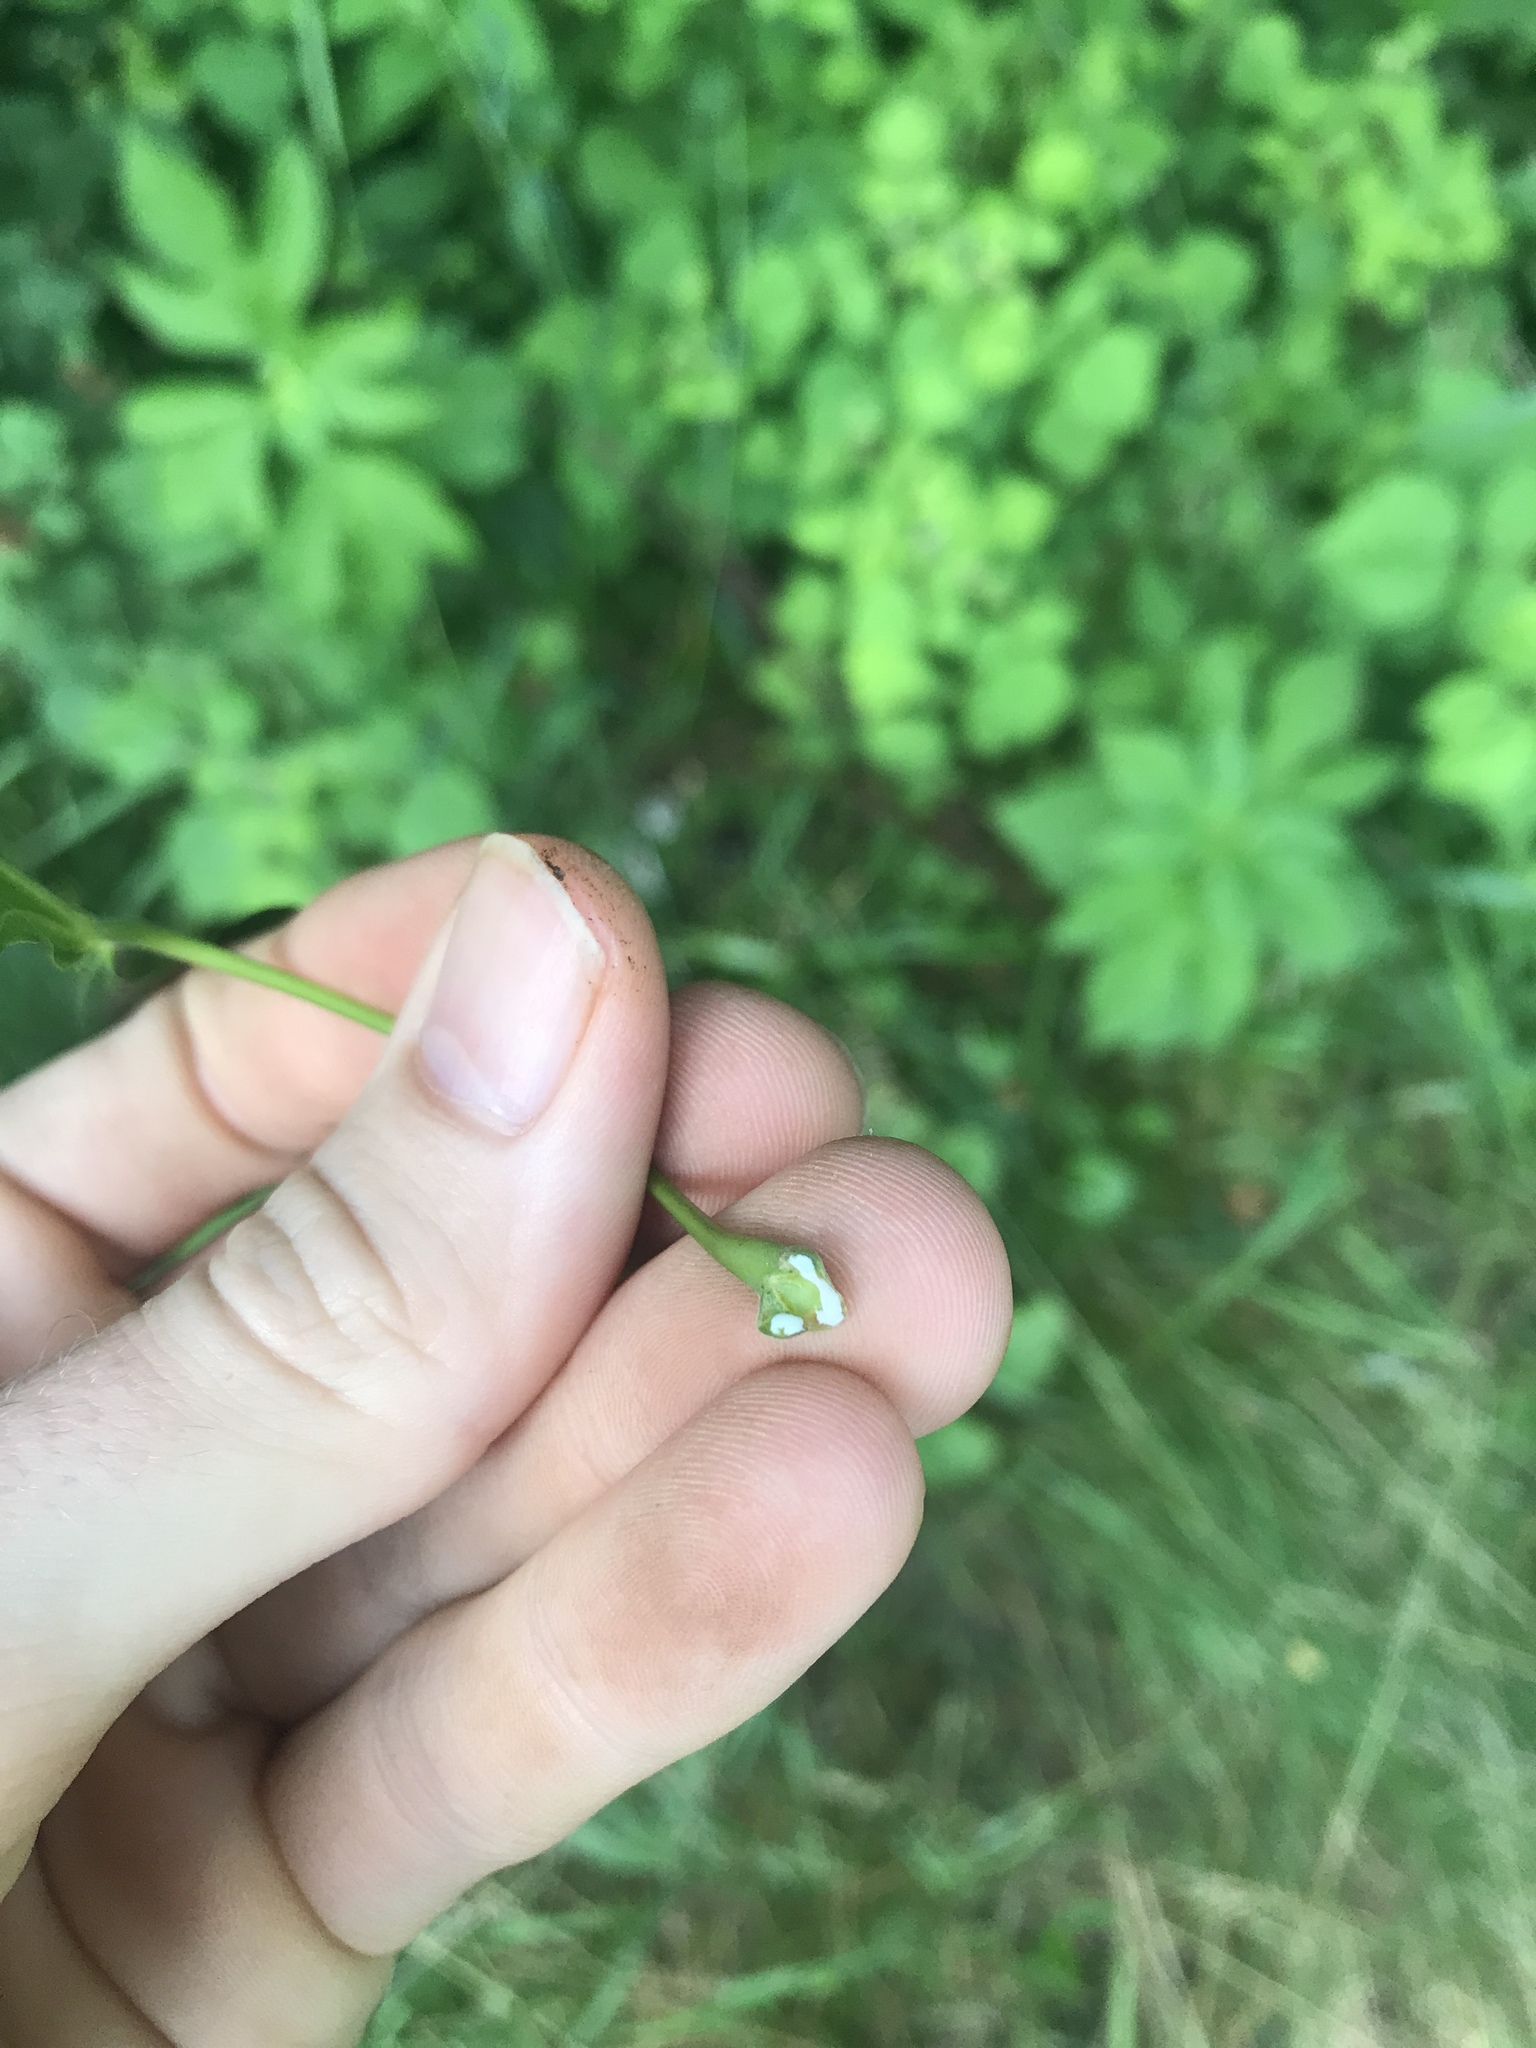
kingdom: Plantae
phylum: Tracheophyta
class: Magnoliopsida
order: Sapindales
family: Sapindaceae
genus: Acer
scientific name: Acer platanoides
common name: Norway maple
